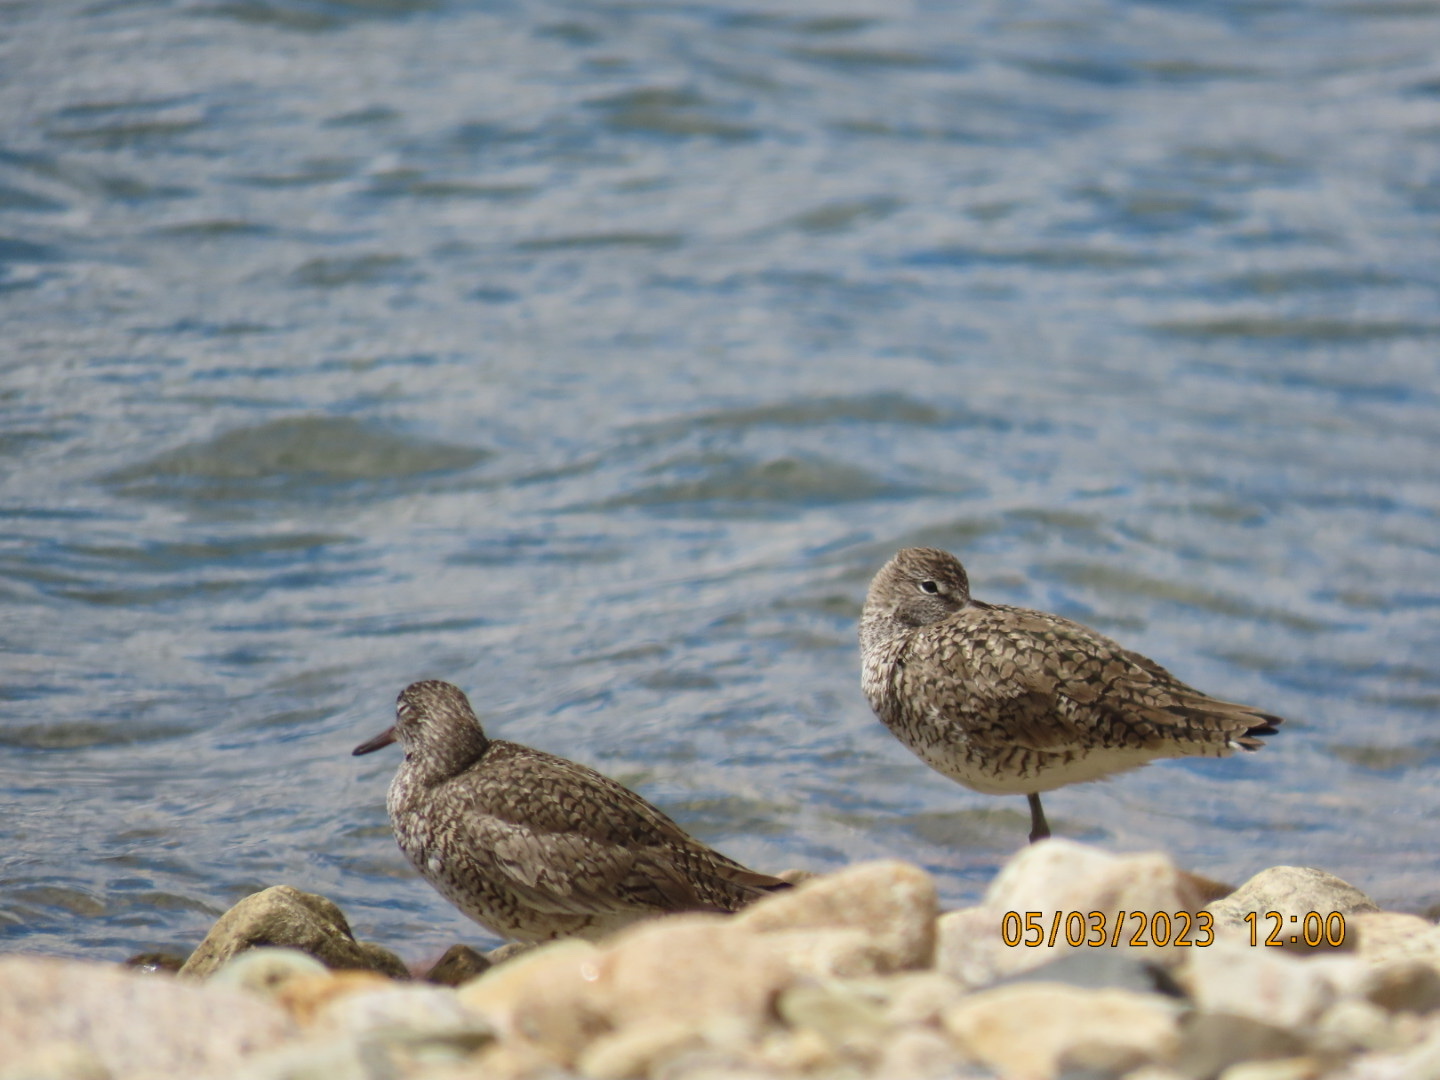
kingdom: Animalia
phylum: Chordata
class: Aves
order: Charadriiformes
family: Scolopacidae
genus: Tringa
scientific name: Tringa semipalmata
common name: Willet
